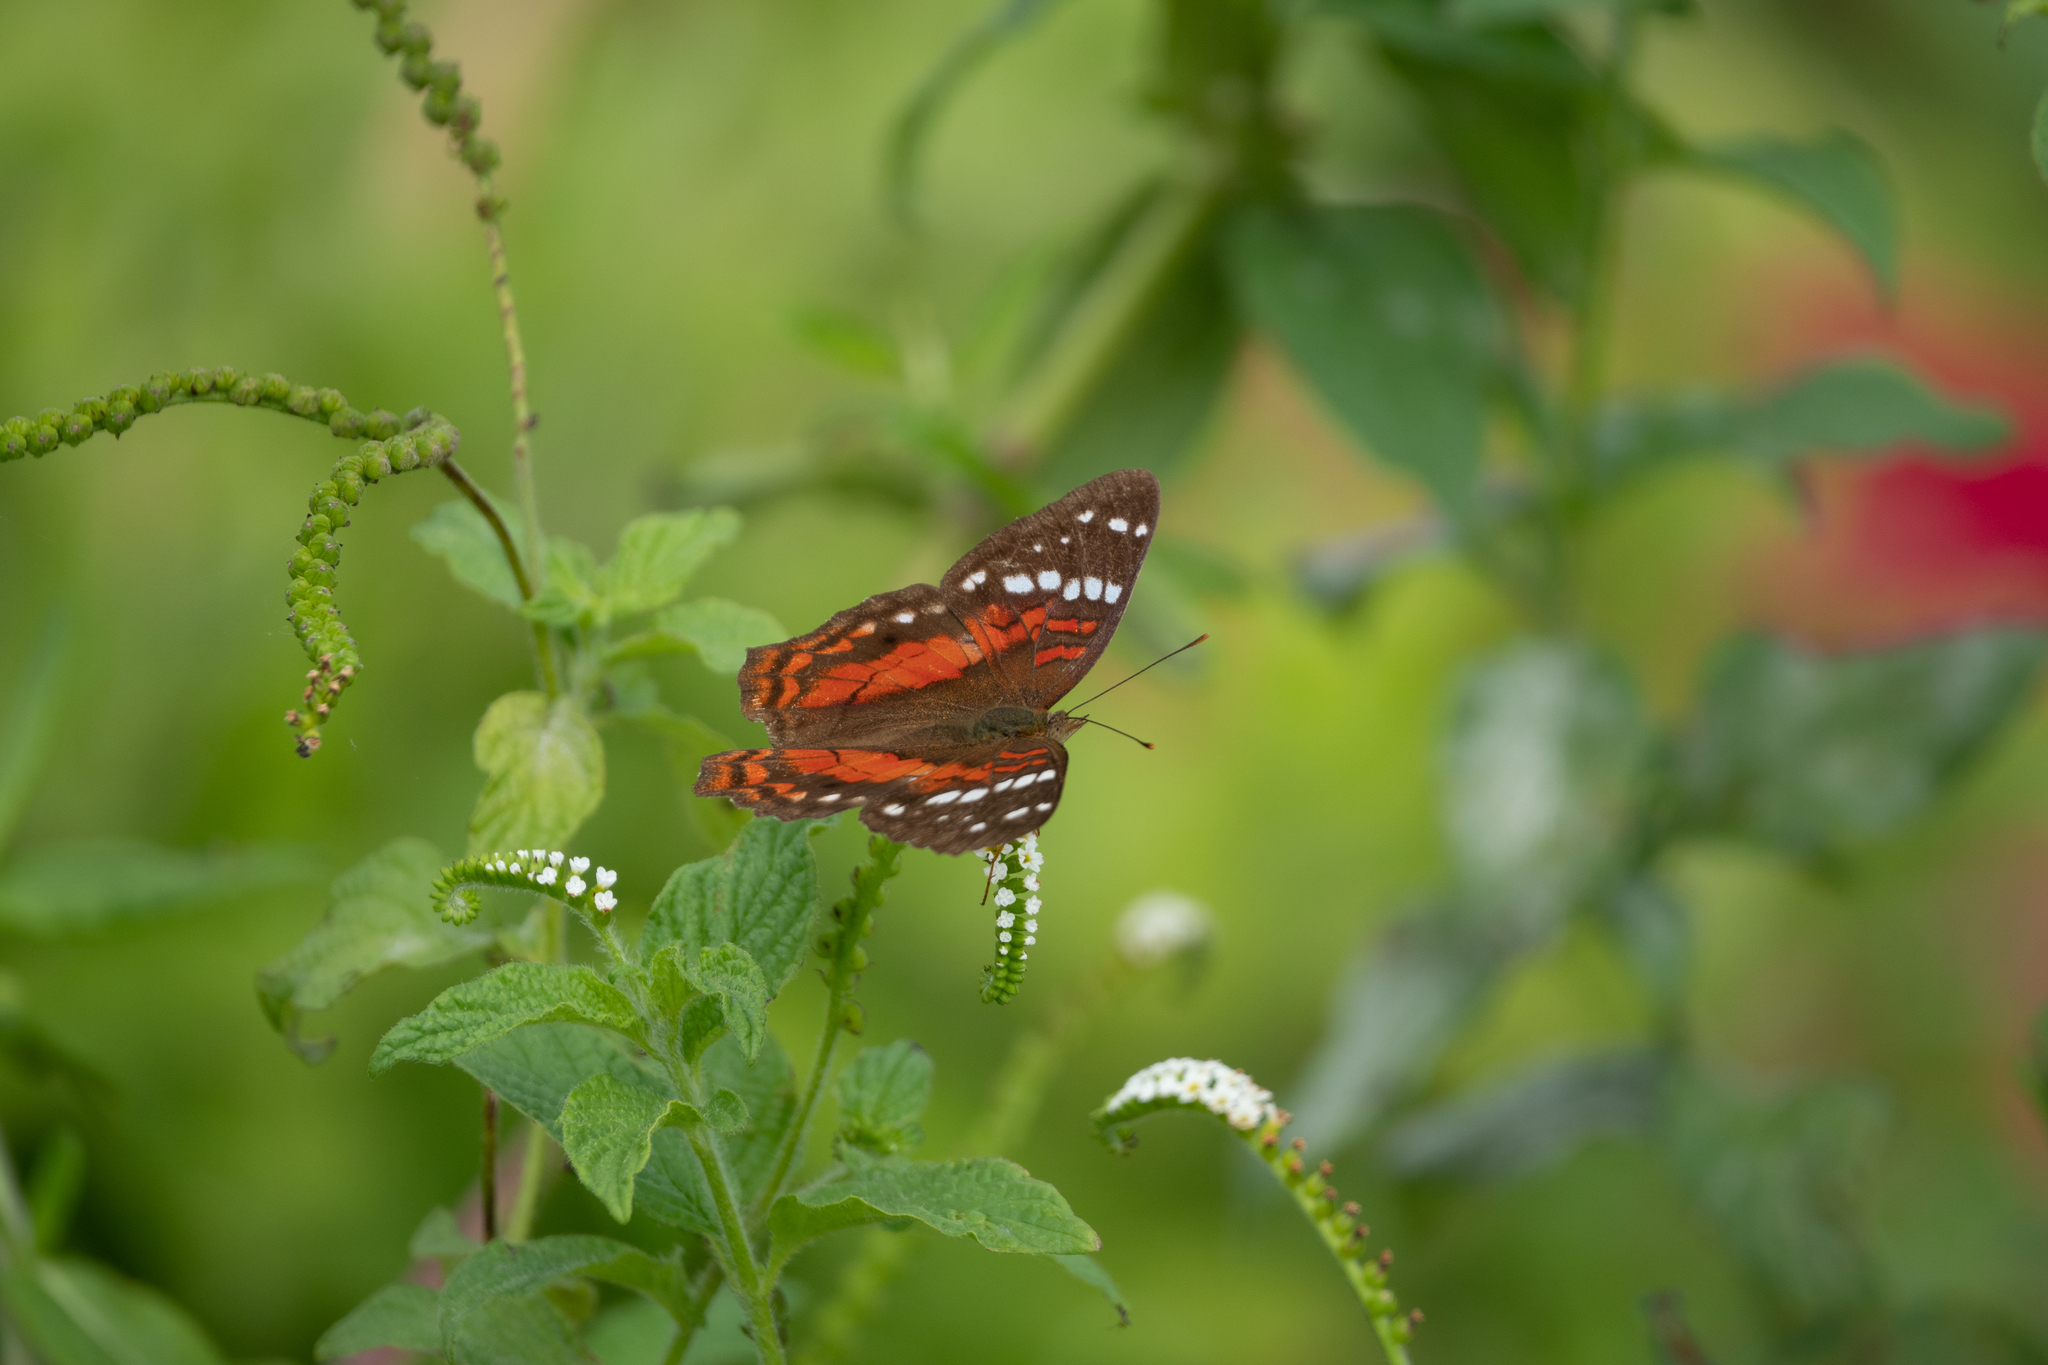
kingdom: Animalia
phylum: Arthropoda
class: Insecta
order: Lepidoptera
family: Nymphalidae
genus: Anartia
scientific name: Anartia amathea
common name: Red peacock
